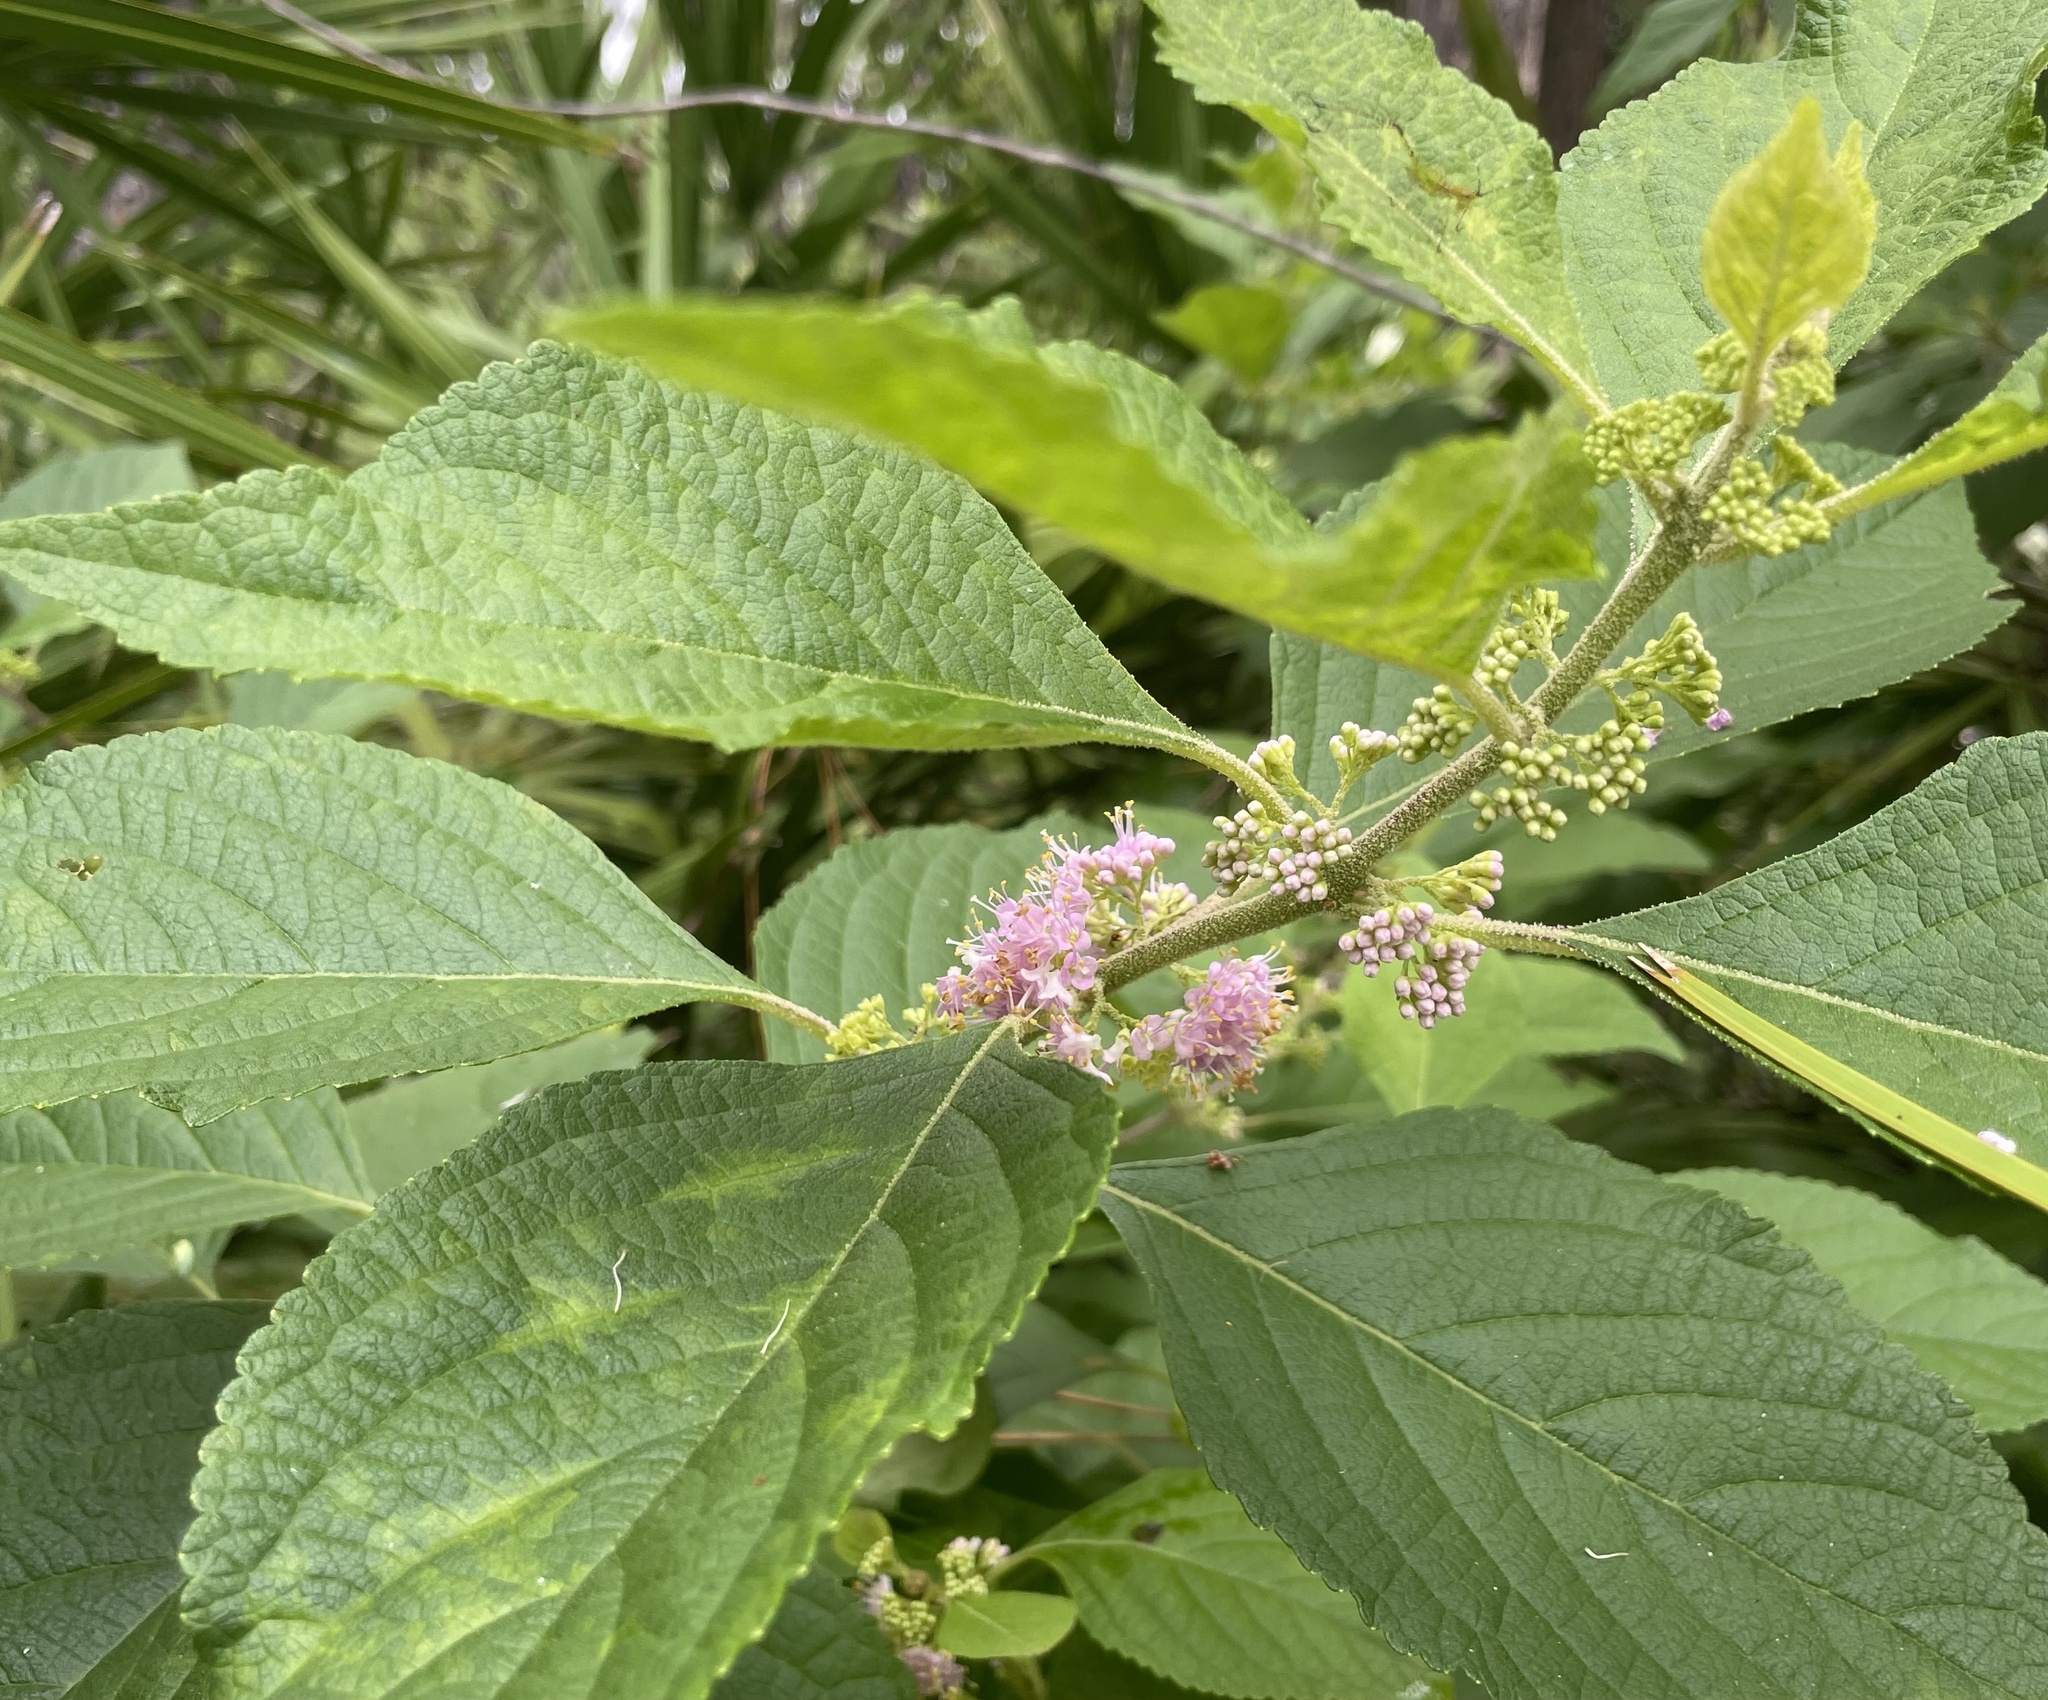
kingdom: Plantae
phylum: Tracheophyta
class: Magnoliopsida
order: Lamiales
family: Lamiaceae
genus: Callicarpa
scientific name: Callicarpa americana
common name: American beautyberry
